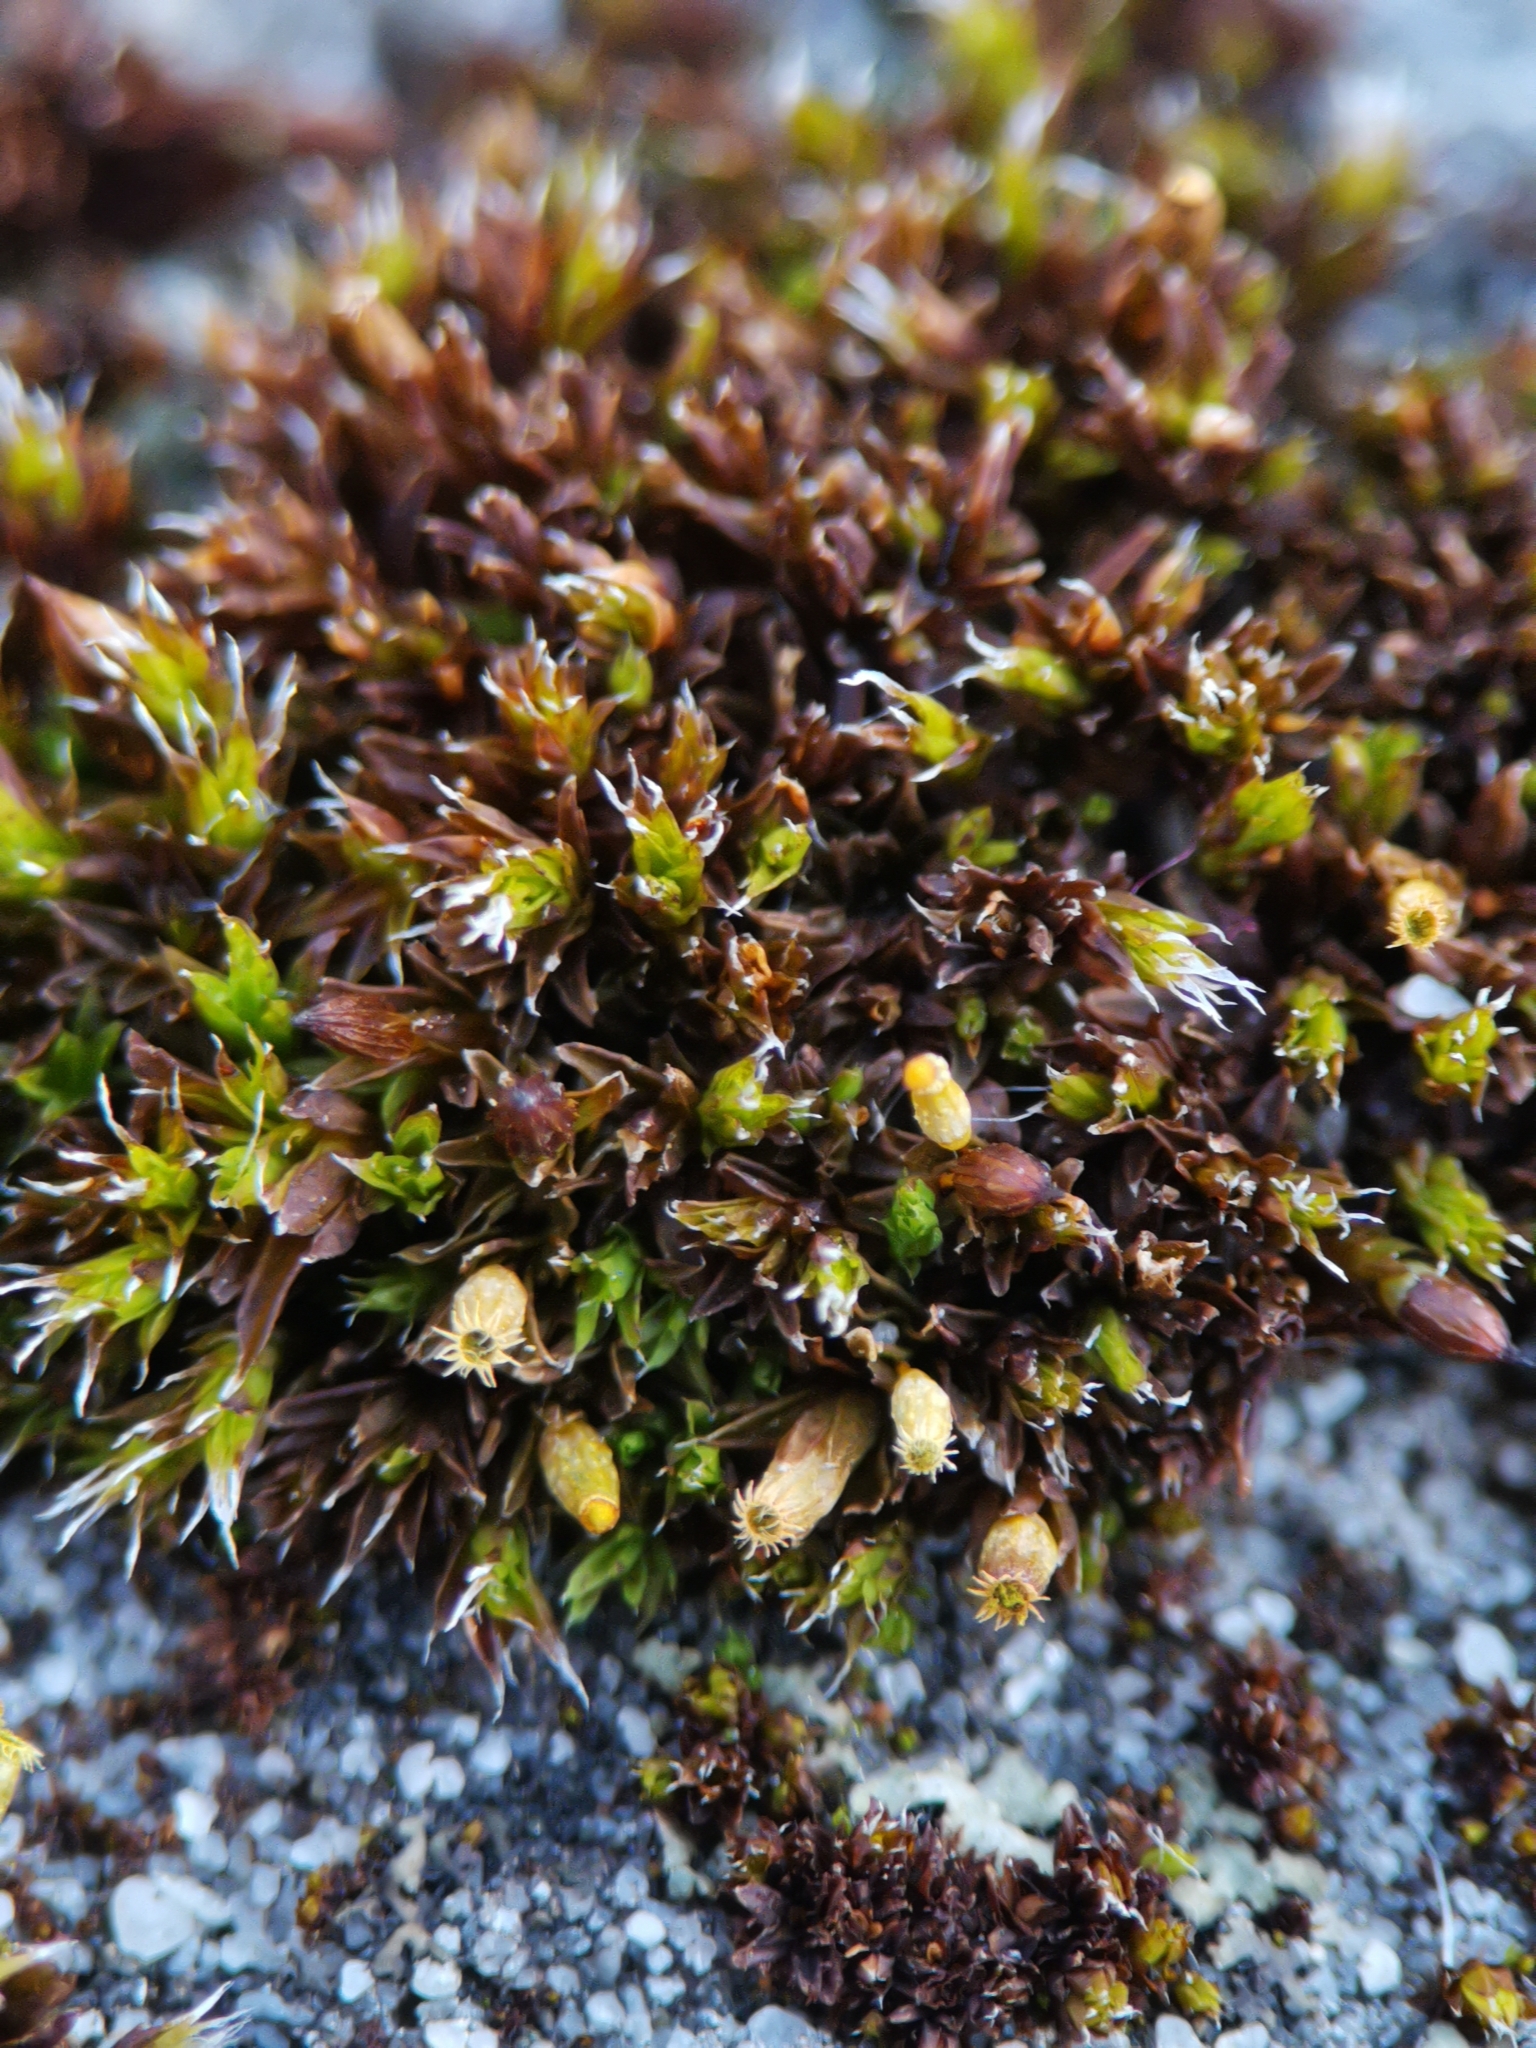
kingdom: Plantae
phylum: Bryophyta
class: Bryopsida
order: Orthotrichales
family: Orthotrichaceae
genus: Orthotrichum
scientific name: Orthotrichum diaphanum
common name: White-tipped bristle-moss
